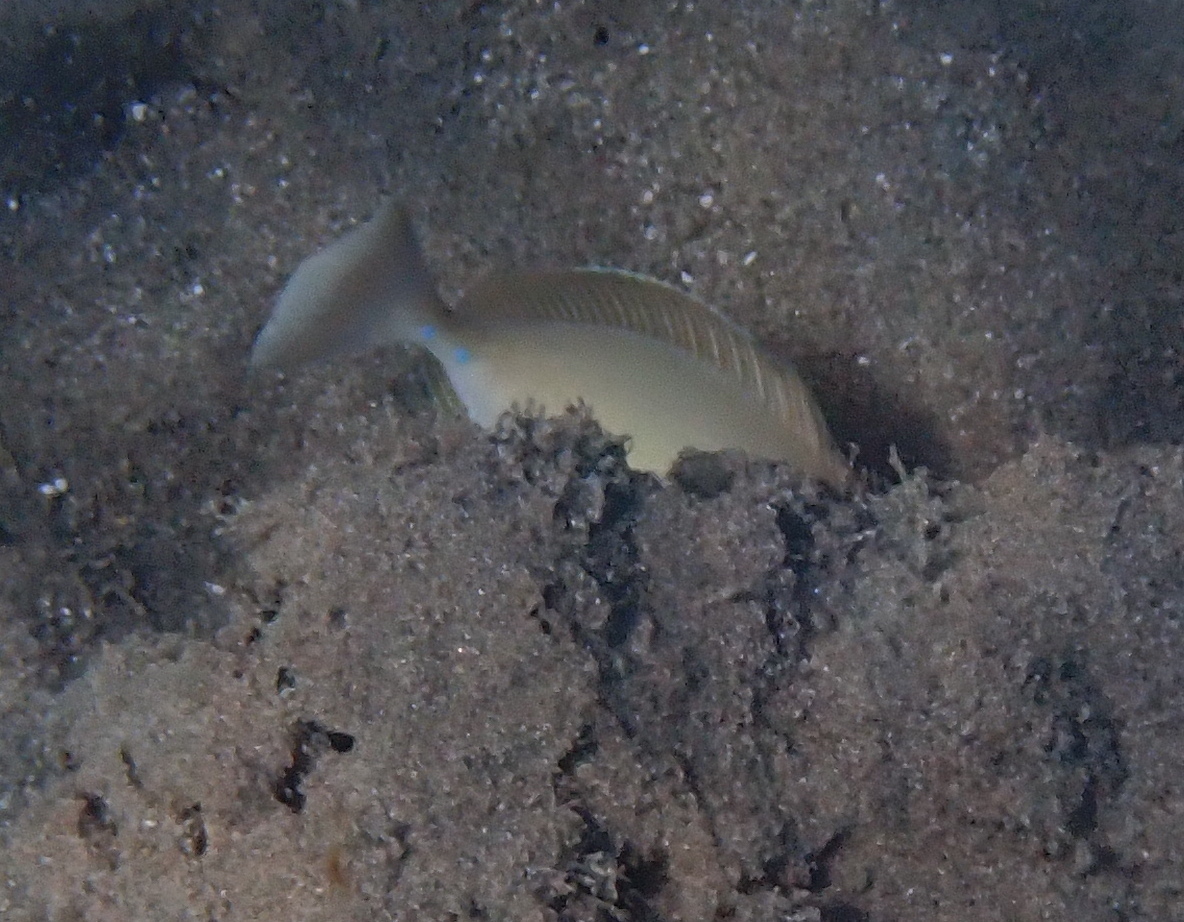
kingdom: Animalia
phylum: Chordata
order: Perciformes
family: Acanthuridae
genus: Naso
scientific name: Naso unicornis
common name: Bluespine unicornfish
